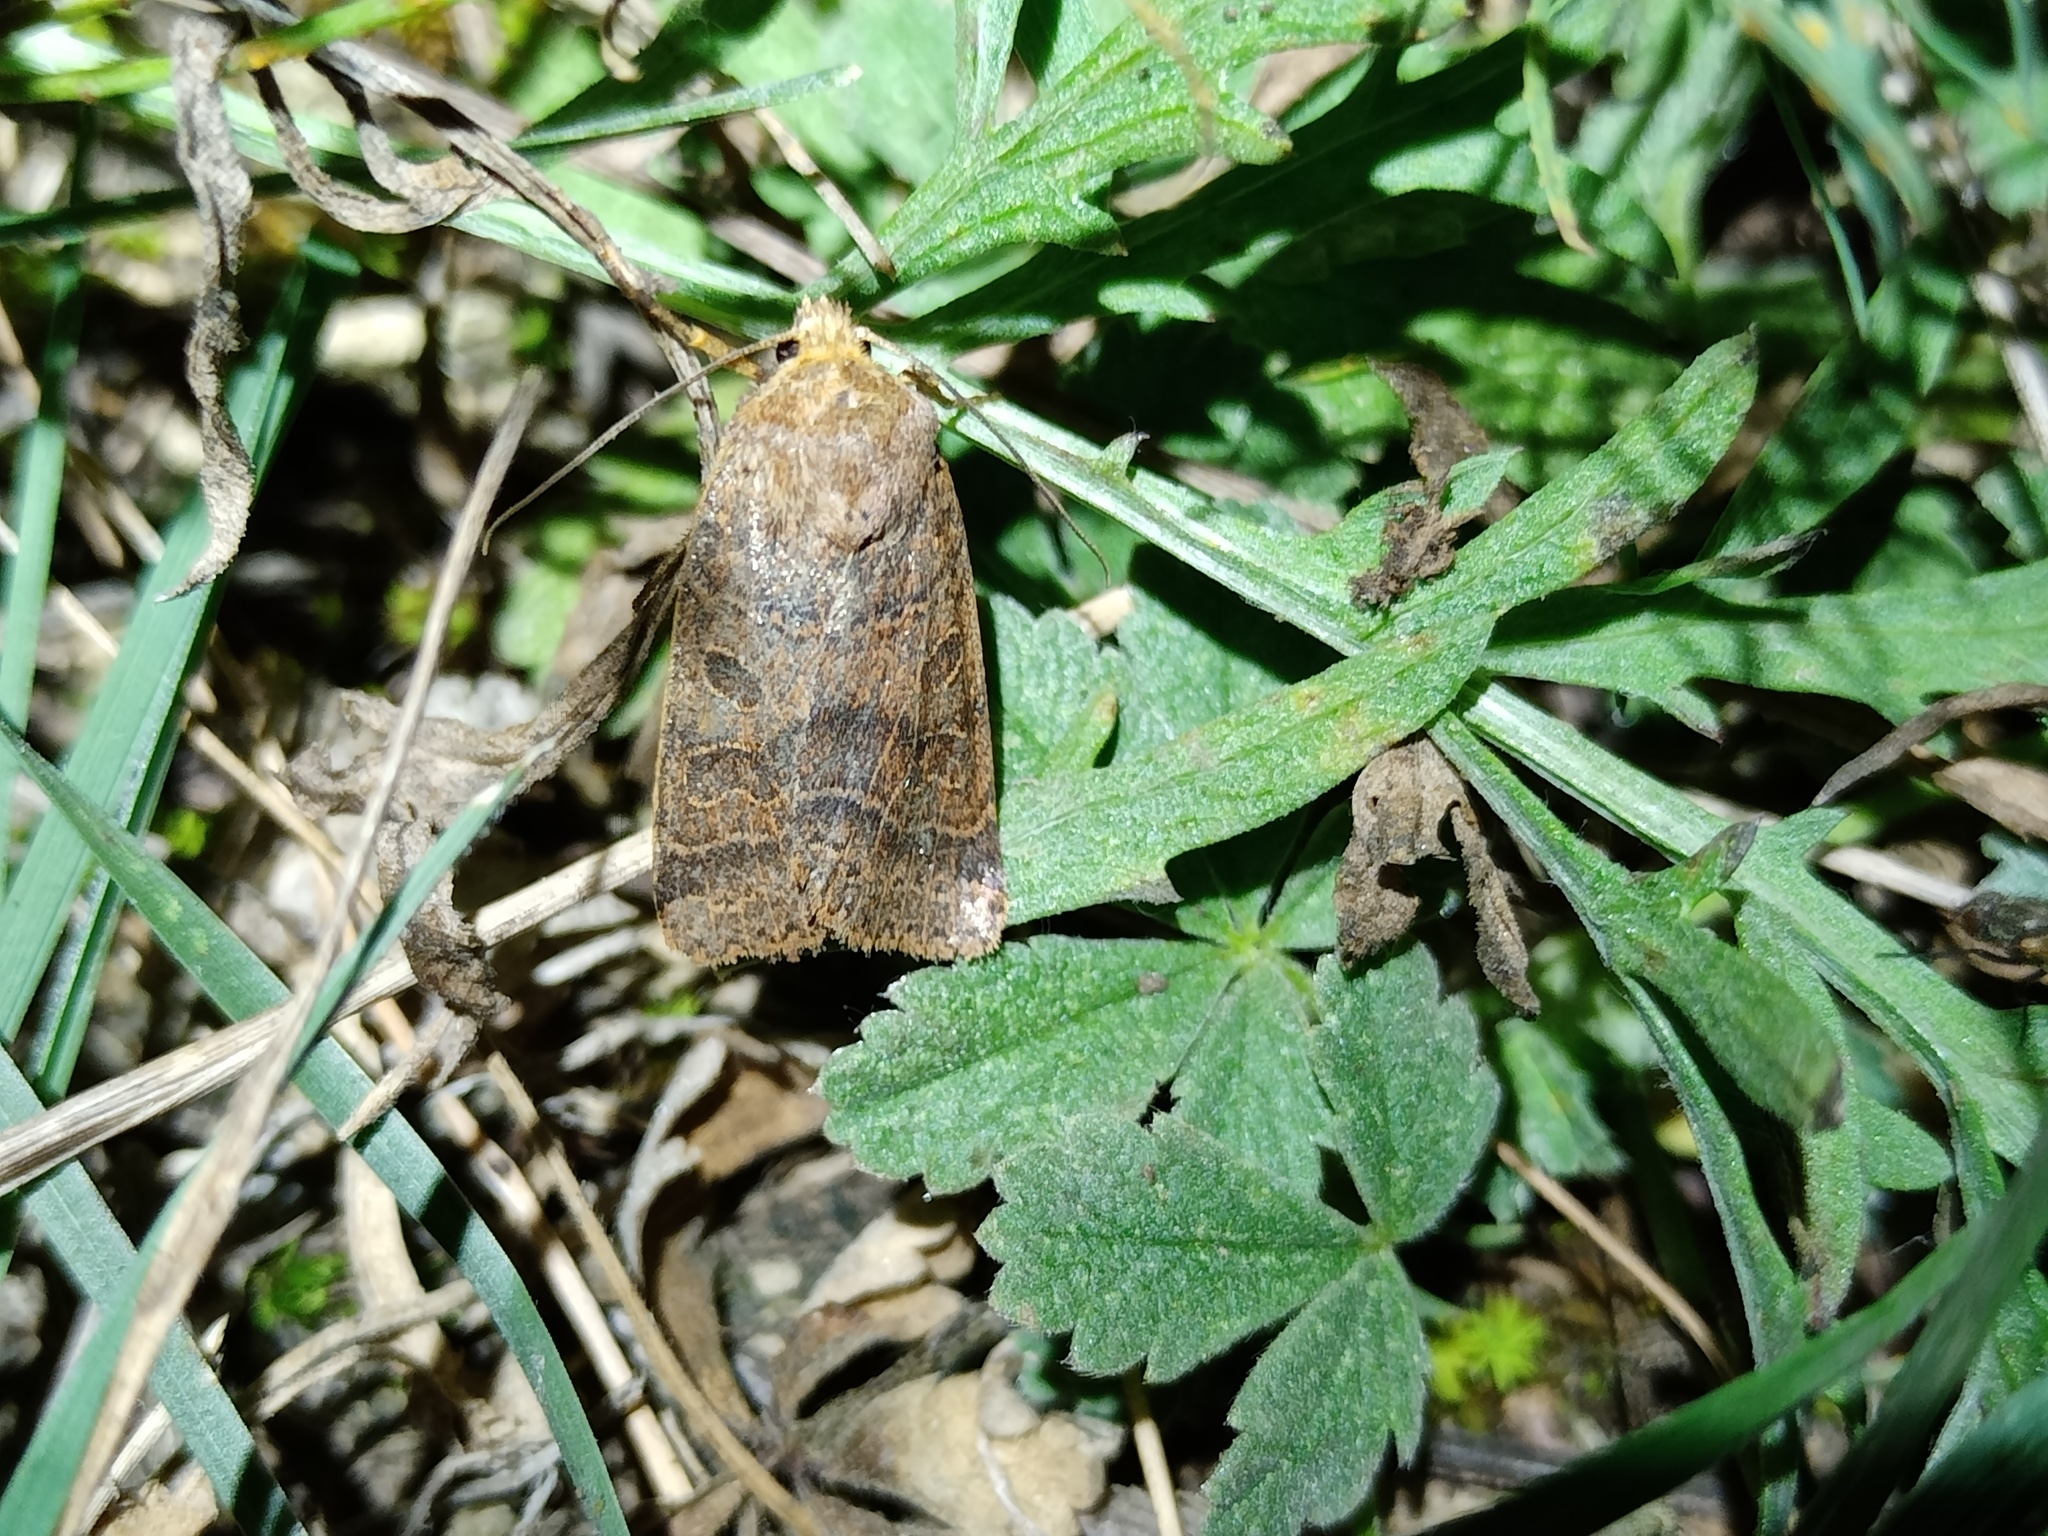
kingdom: Animalia
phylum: Arthropoda
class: Insecta
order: Lepidoptera
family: Noctuidae
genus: Agrochola
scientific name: Agrochola nitida
